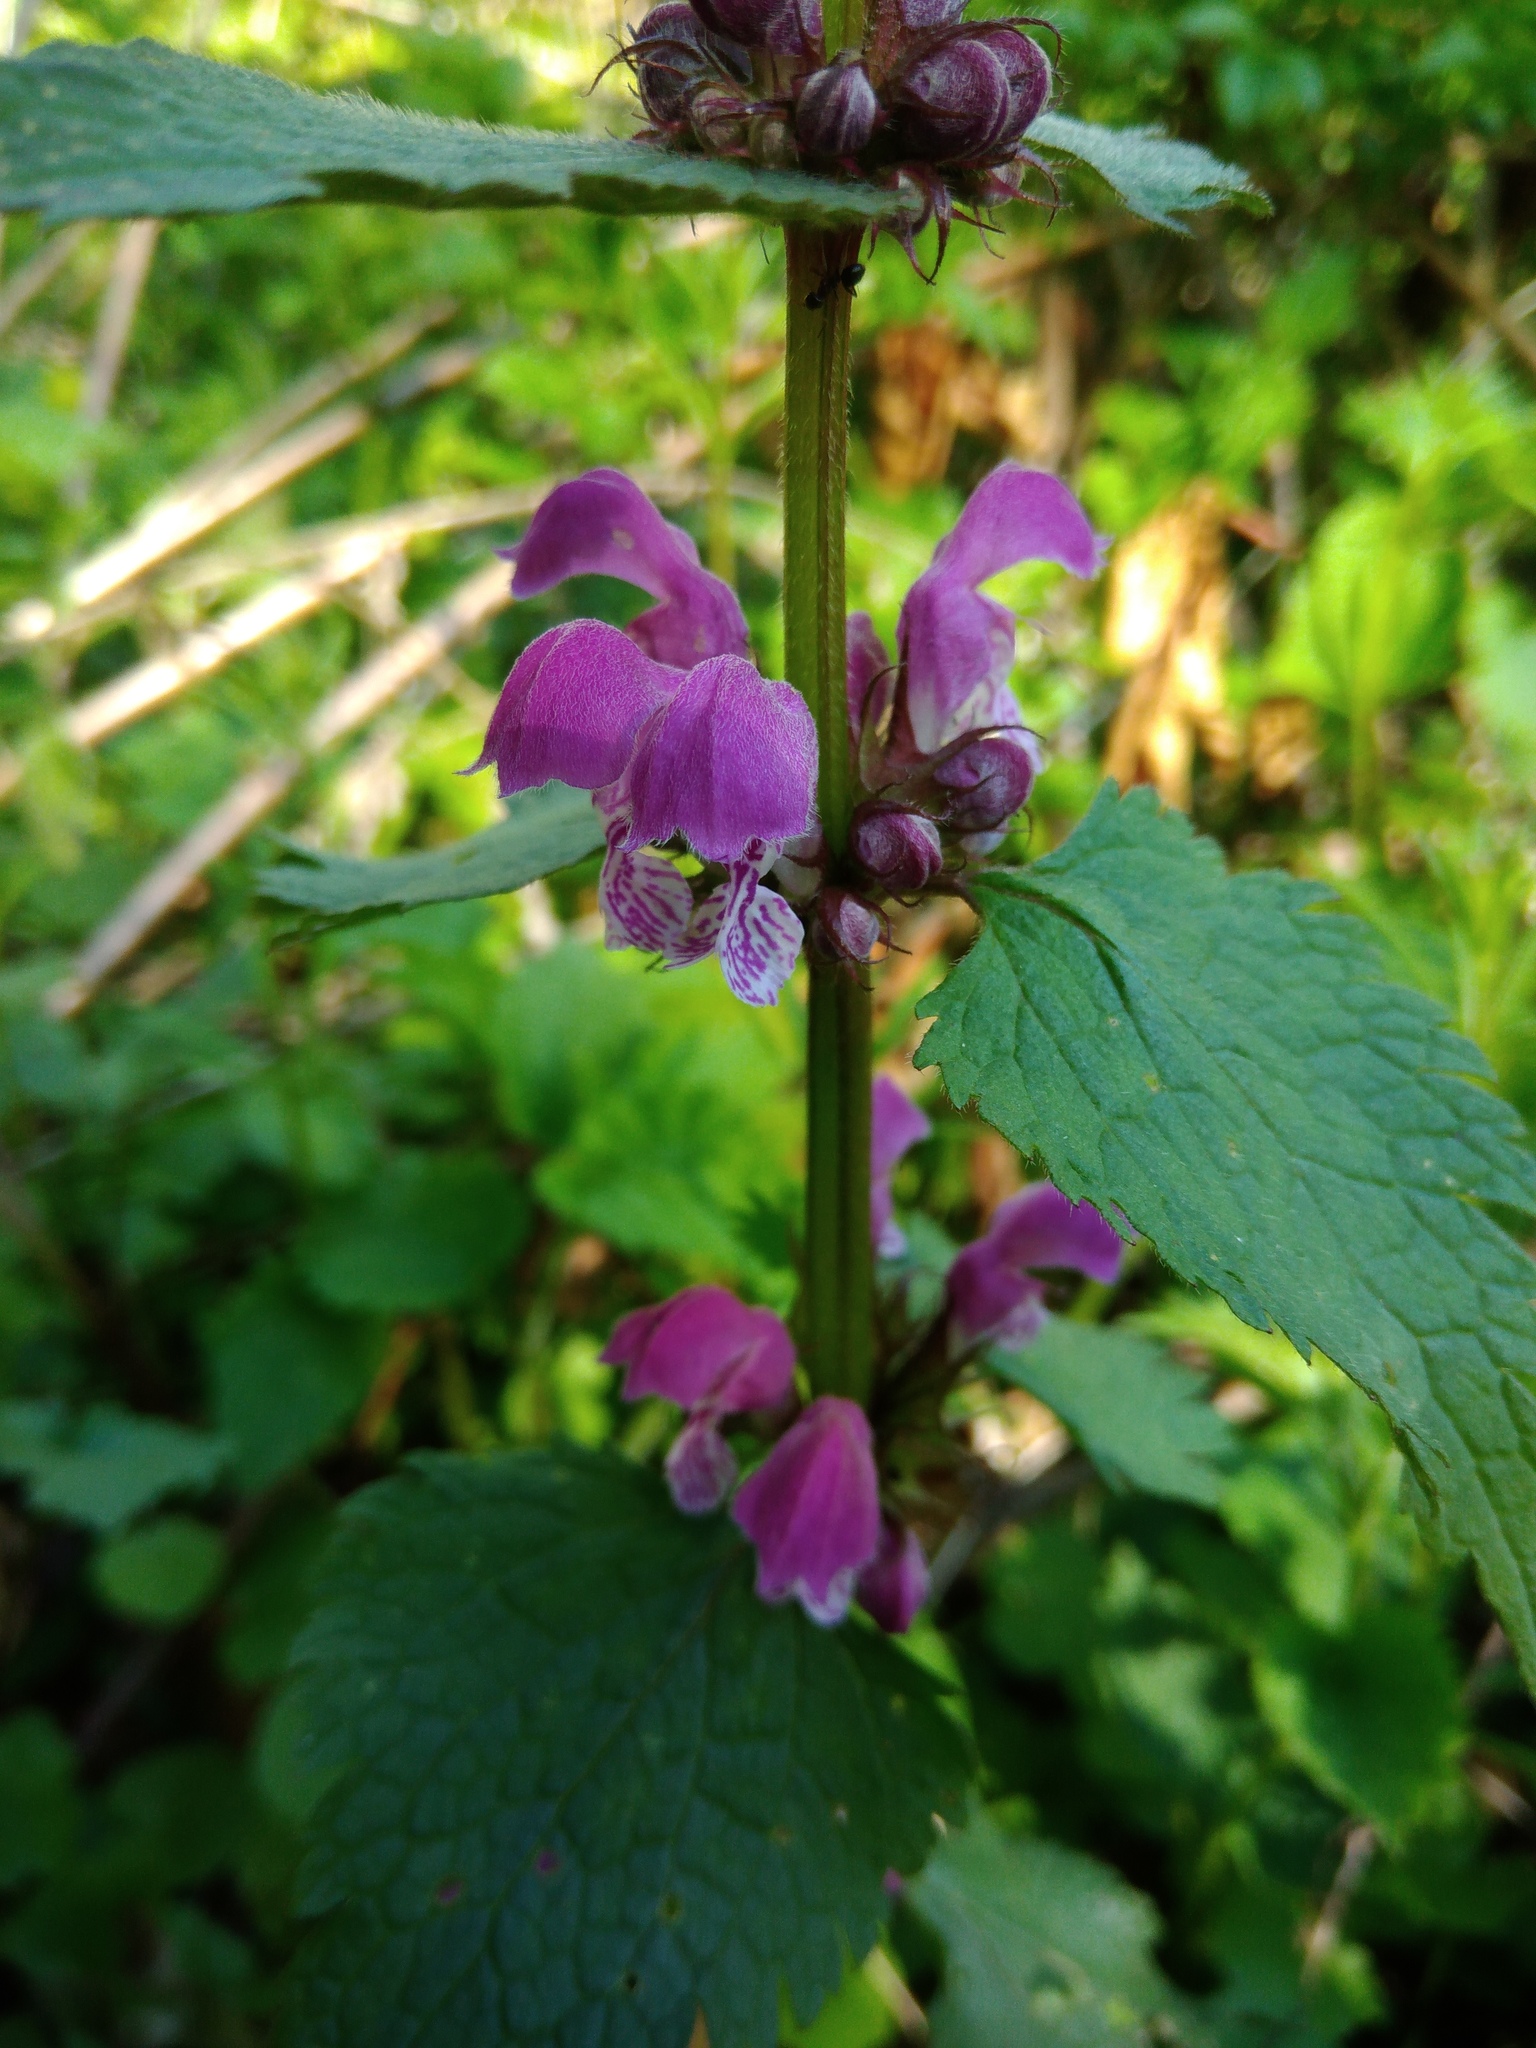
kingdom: Plantae
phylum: Tracheophyta
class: Magnoliopsida
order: Lamiales
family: Lamiaceae
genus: Lamium
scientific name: Lamium maculatum
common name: Spotted dead-nettle
